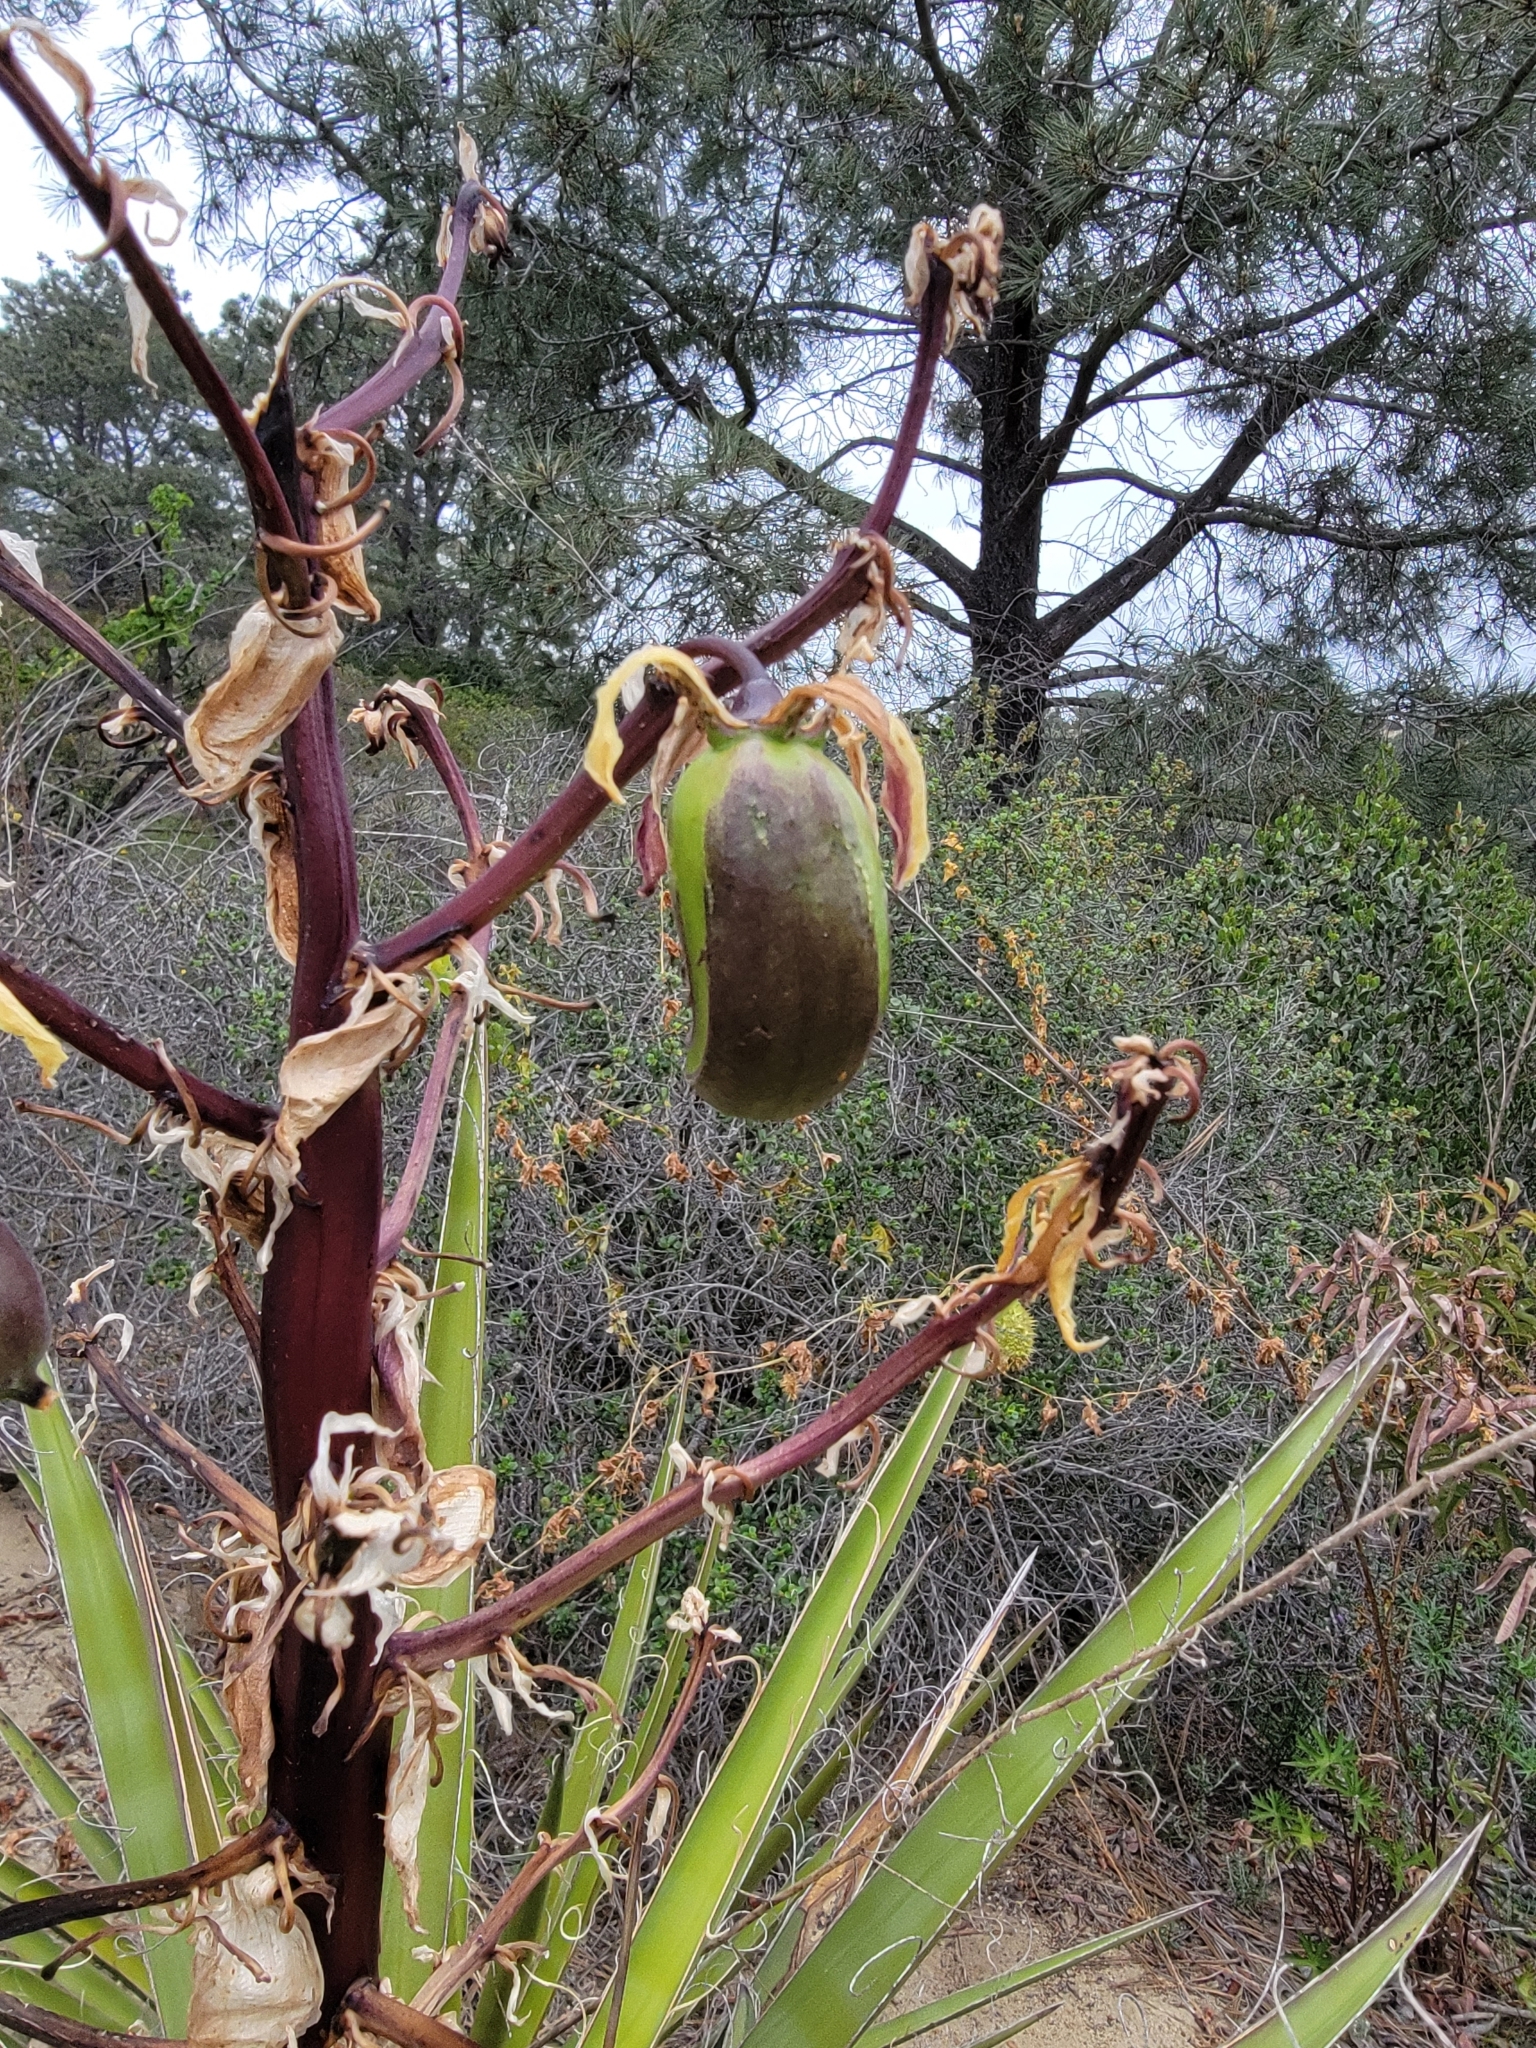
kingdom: Plantae
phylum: Tracheophyta
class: Liliopsida
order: Asparagales
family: Asparagaceae
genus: Yucca
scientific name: Yucca schidigera
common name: Mojave yucca
